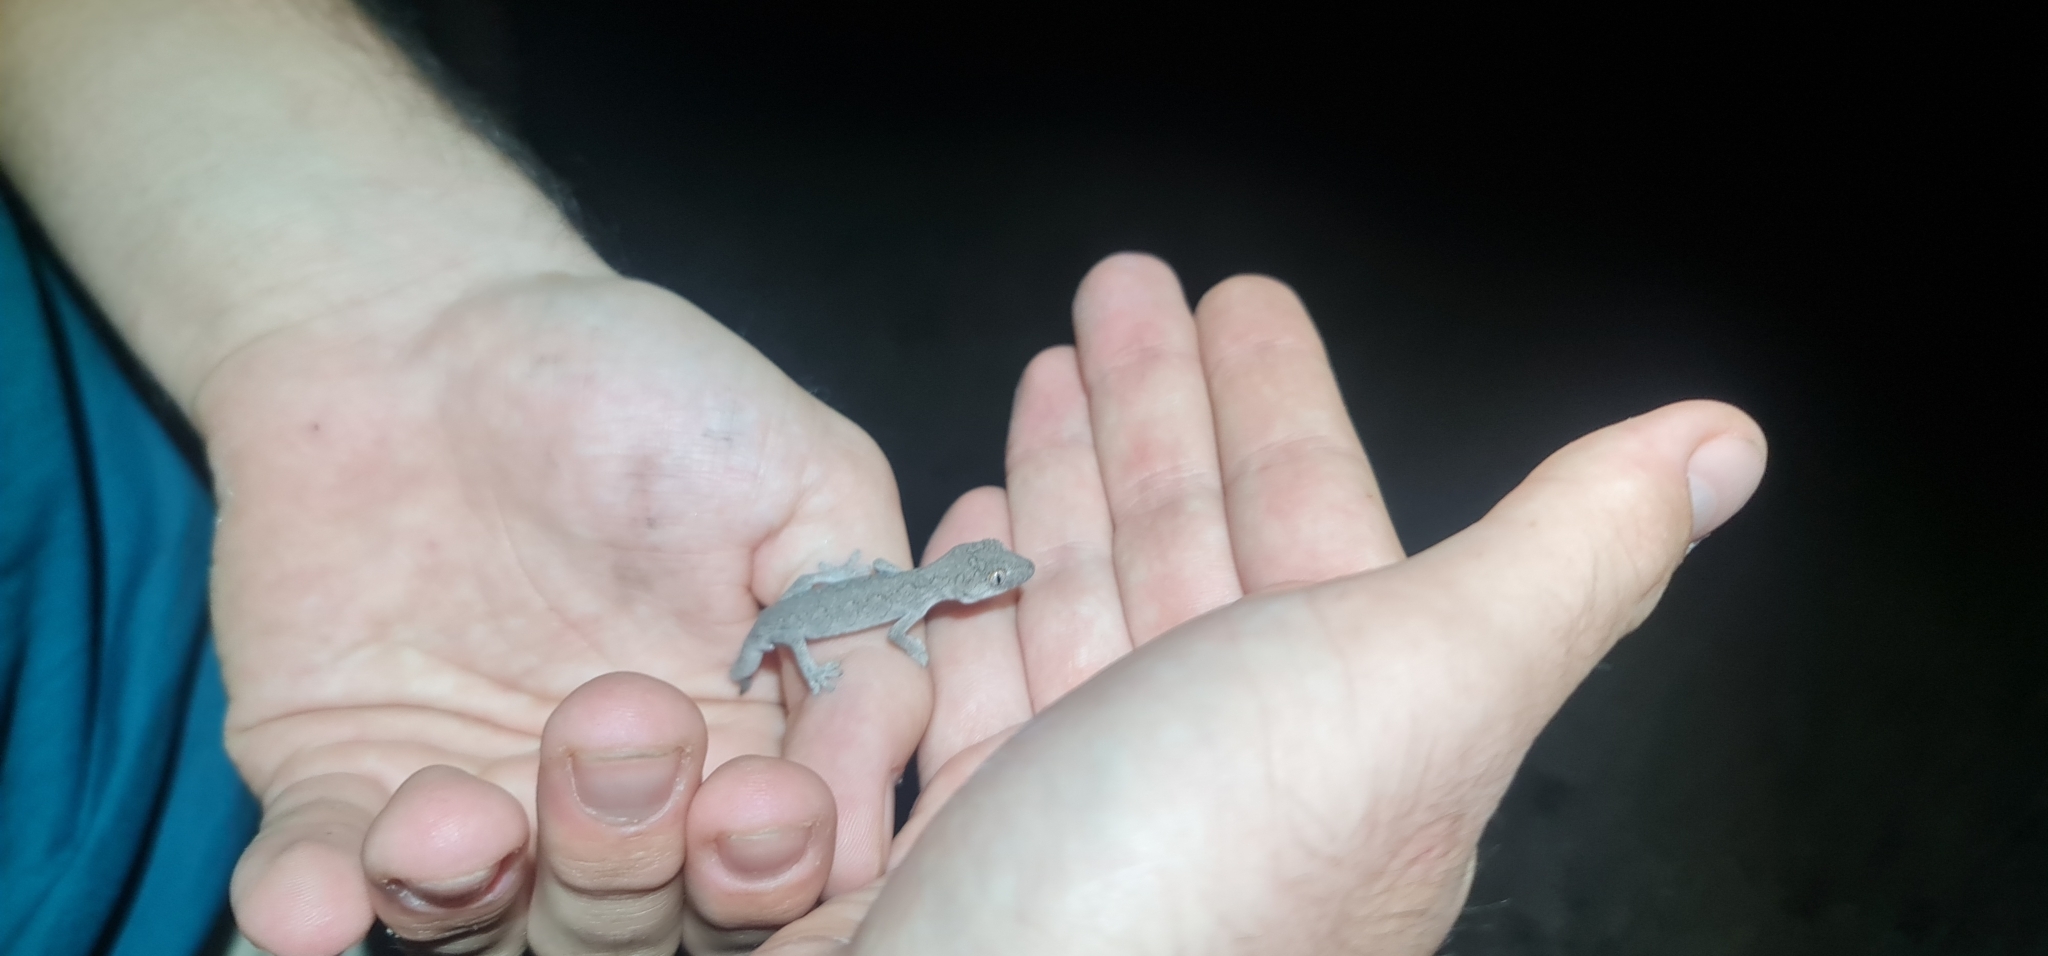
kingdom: Animalia
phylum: Chordata
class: Squamata
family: Diplodactylidae
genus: Strophurus
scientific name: Strophurus williamsi
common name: Eastern spiny-tailed gecko
